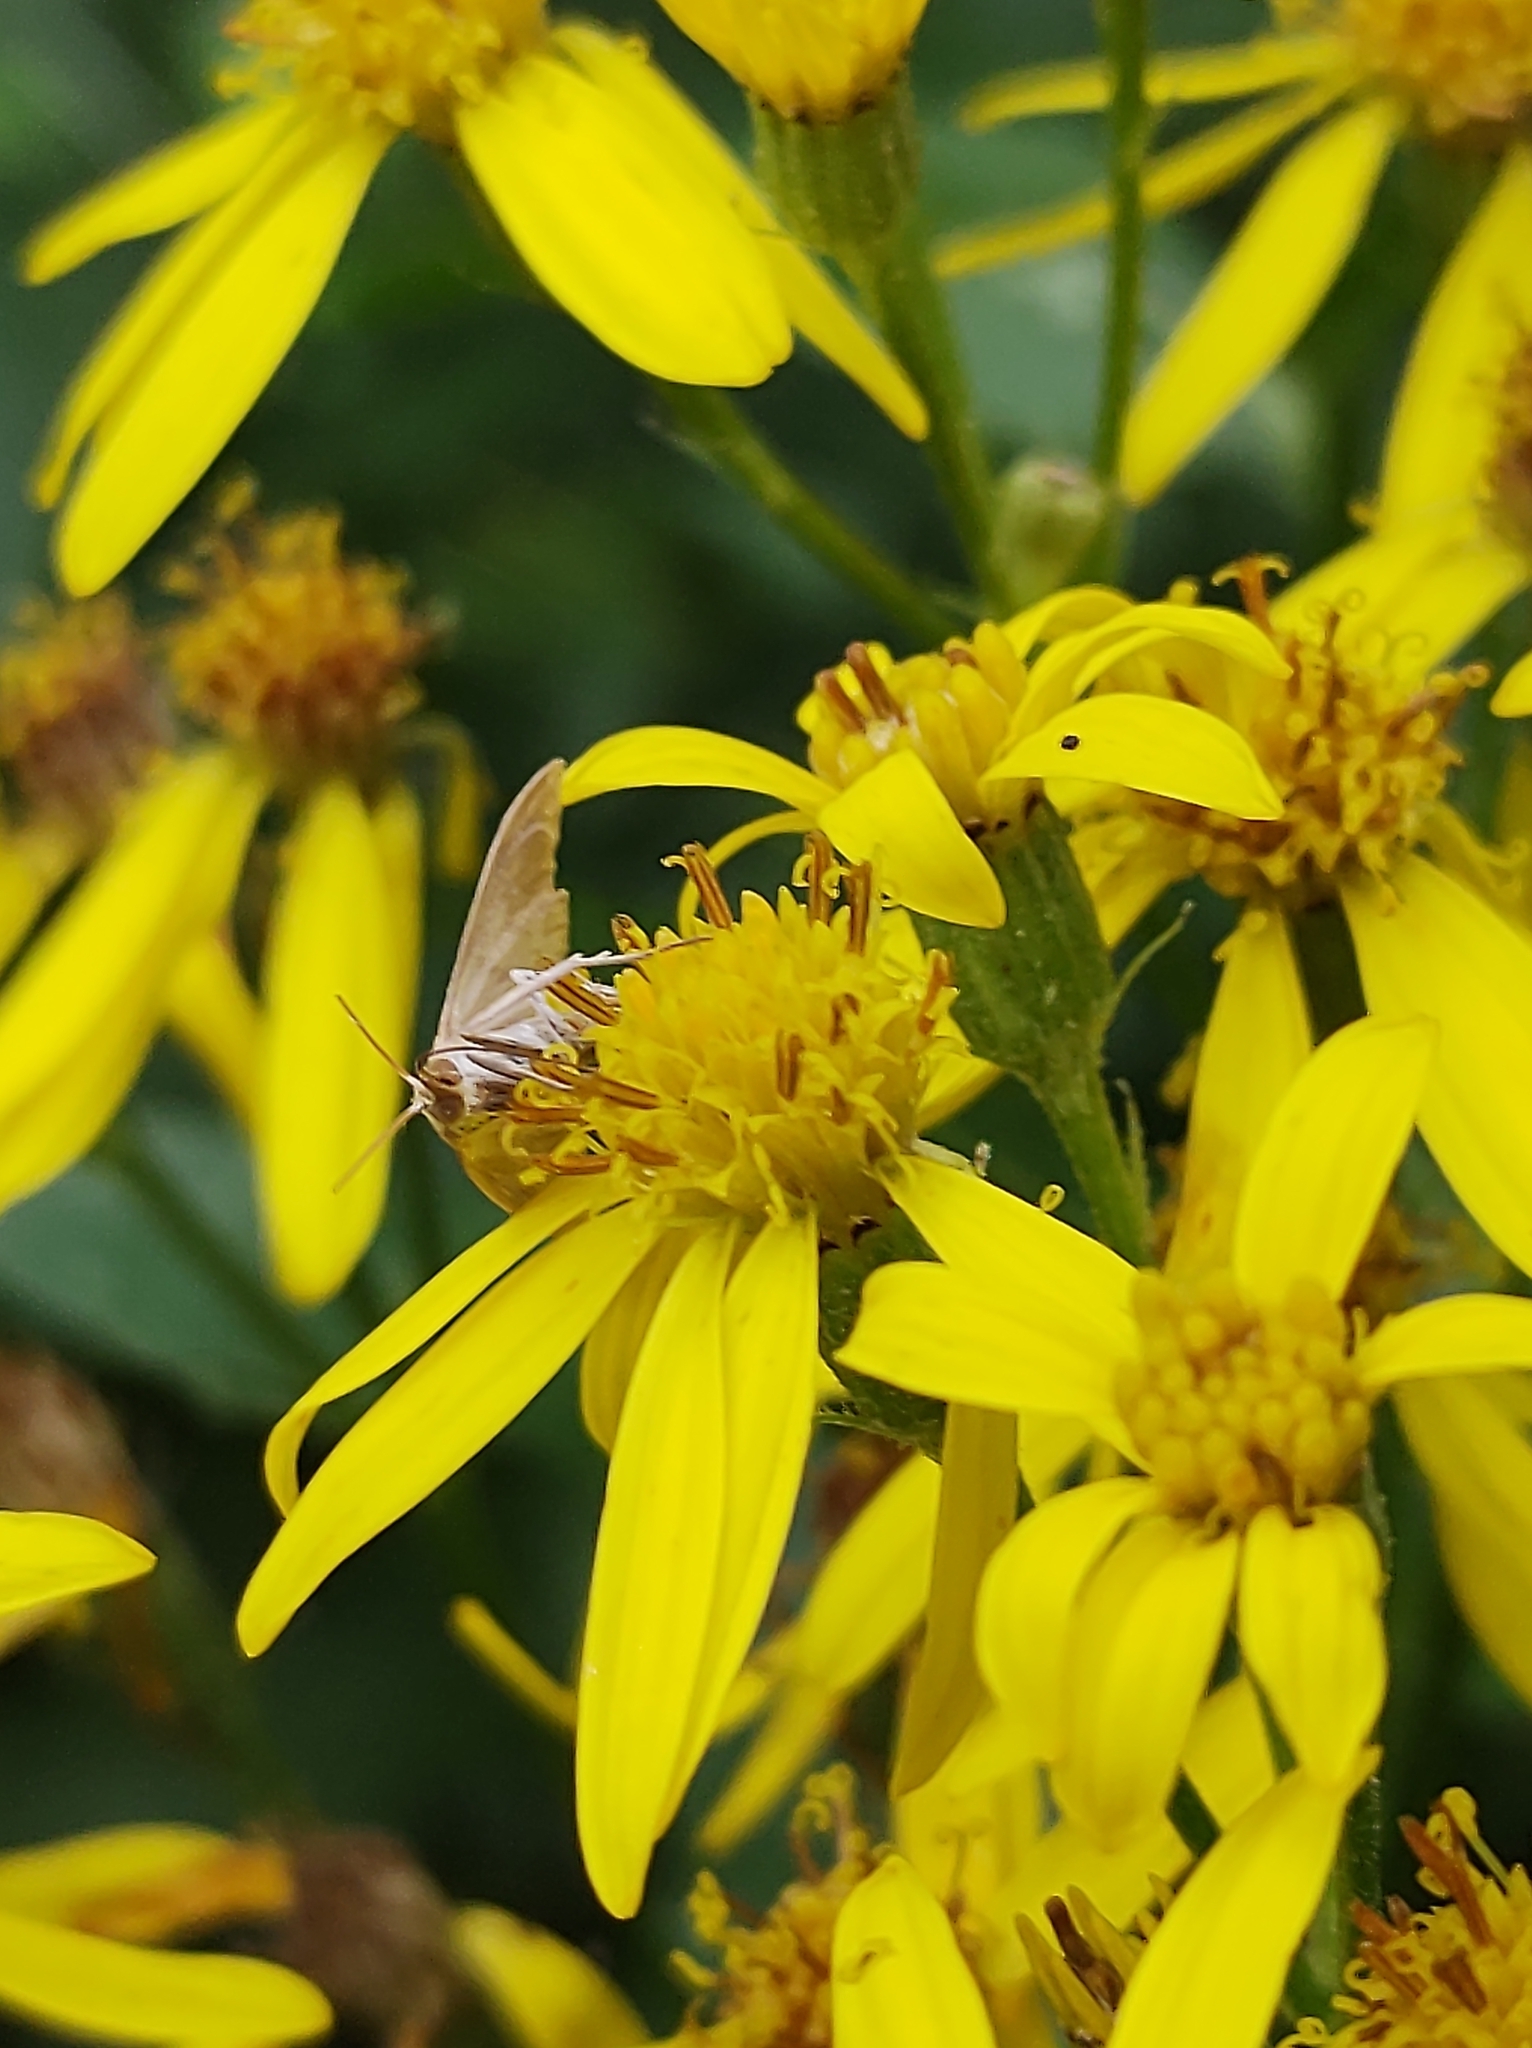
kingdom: Animalia
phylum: Arthropoda
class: Insecta
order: Lepidoptera
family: Crambidae
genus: Udea
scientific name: Udea lutealis
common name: Pale straw pearl
